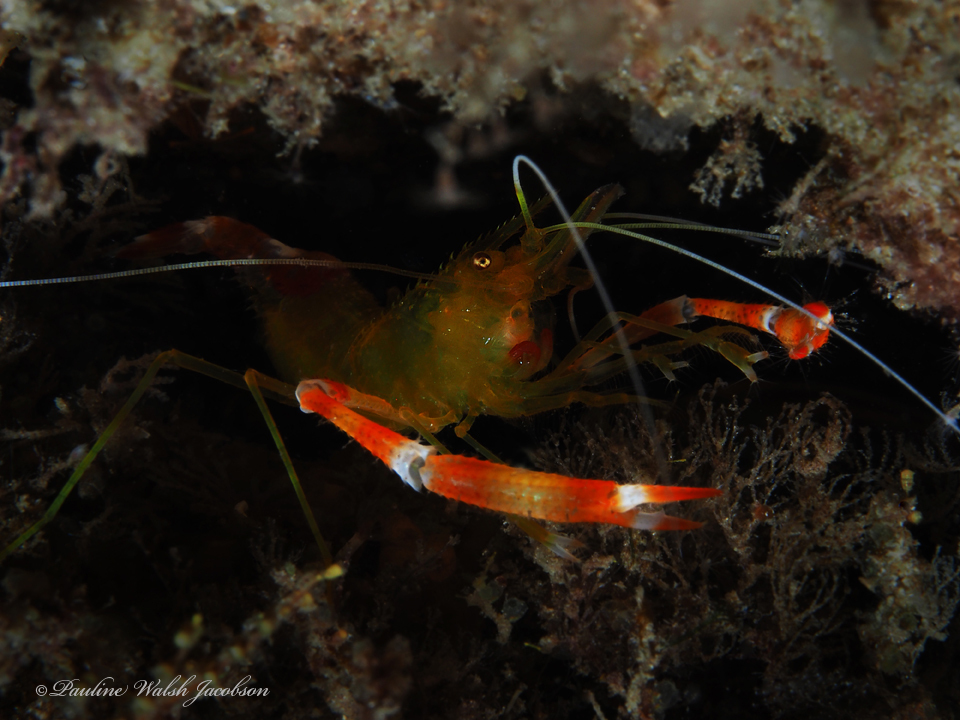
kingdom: Animalia
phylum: Arthropoda
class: Malacostraca
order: Decapoda
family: Stenopodidae
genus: Stenopus
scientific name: Stenopus scutellatus
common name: Golden coral shrimp
